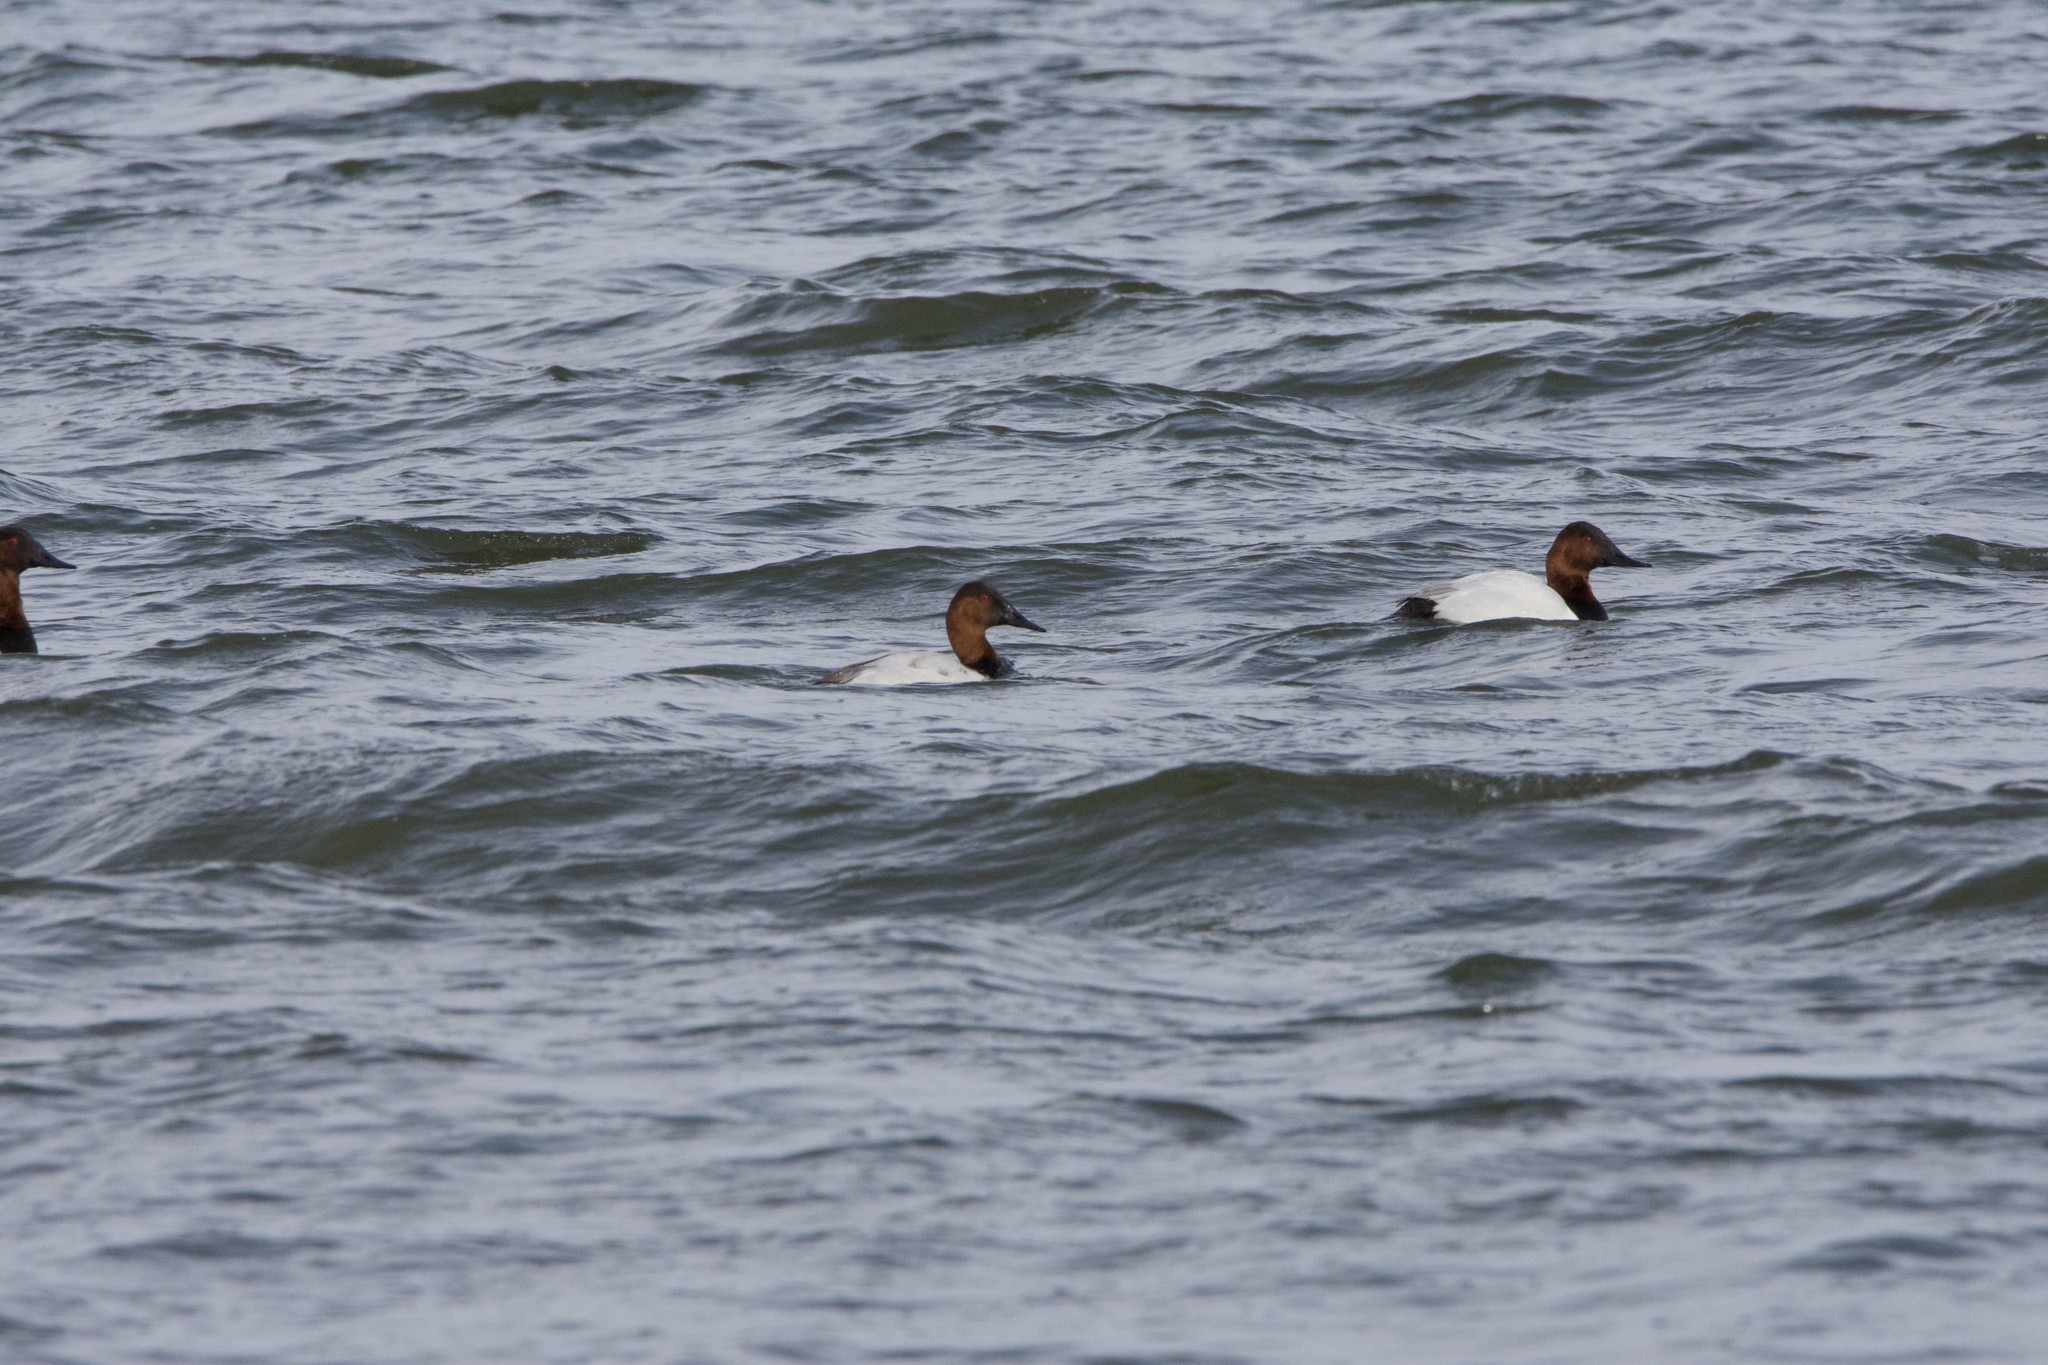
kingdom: Animalia
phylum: Chordata
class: Aves
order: Anseriformes
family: Anatidae
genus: Aythya
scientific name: Aythya valisineria
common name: Canvasback
